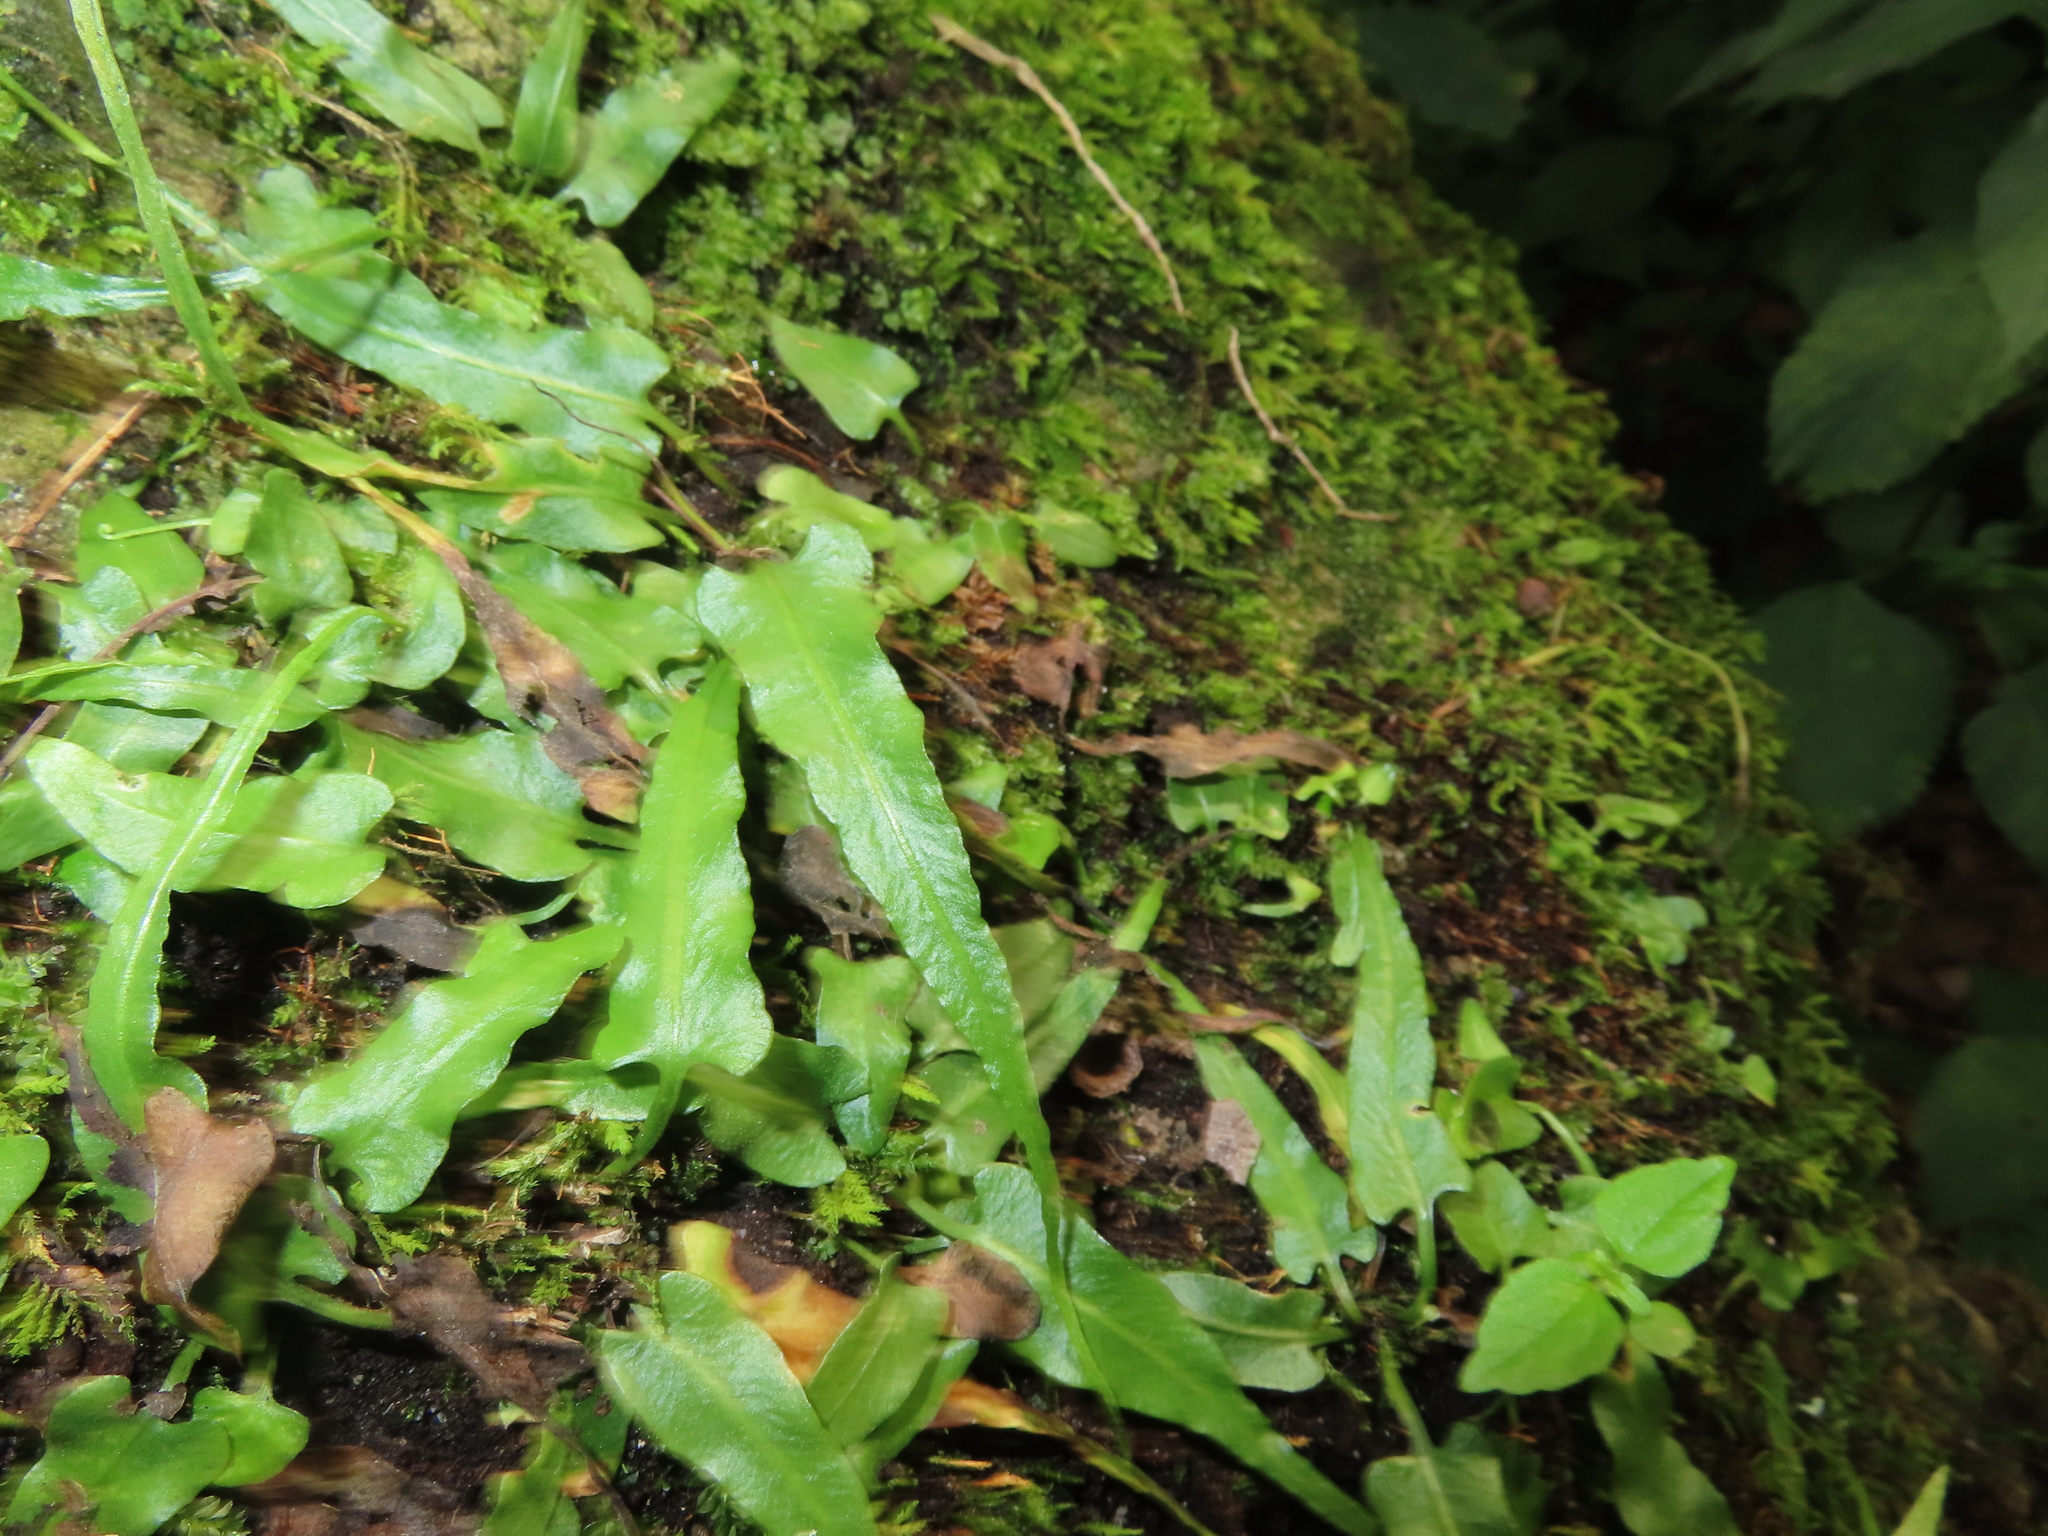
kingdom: Plantae
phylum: Tracheophyta
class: Polypodiopsida
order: Polypodiales
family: Aspleniaceae
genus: Asplenium
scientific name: Asplenium rhizophyllum
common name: Walking fern
